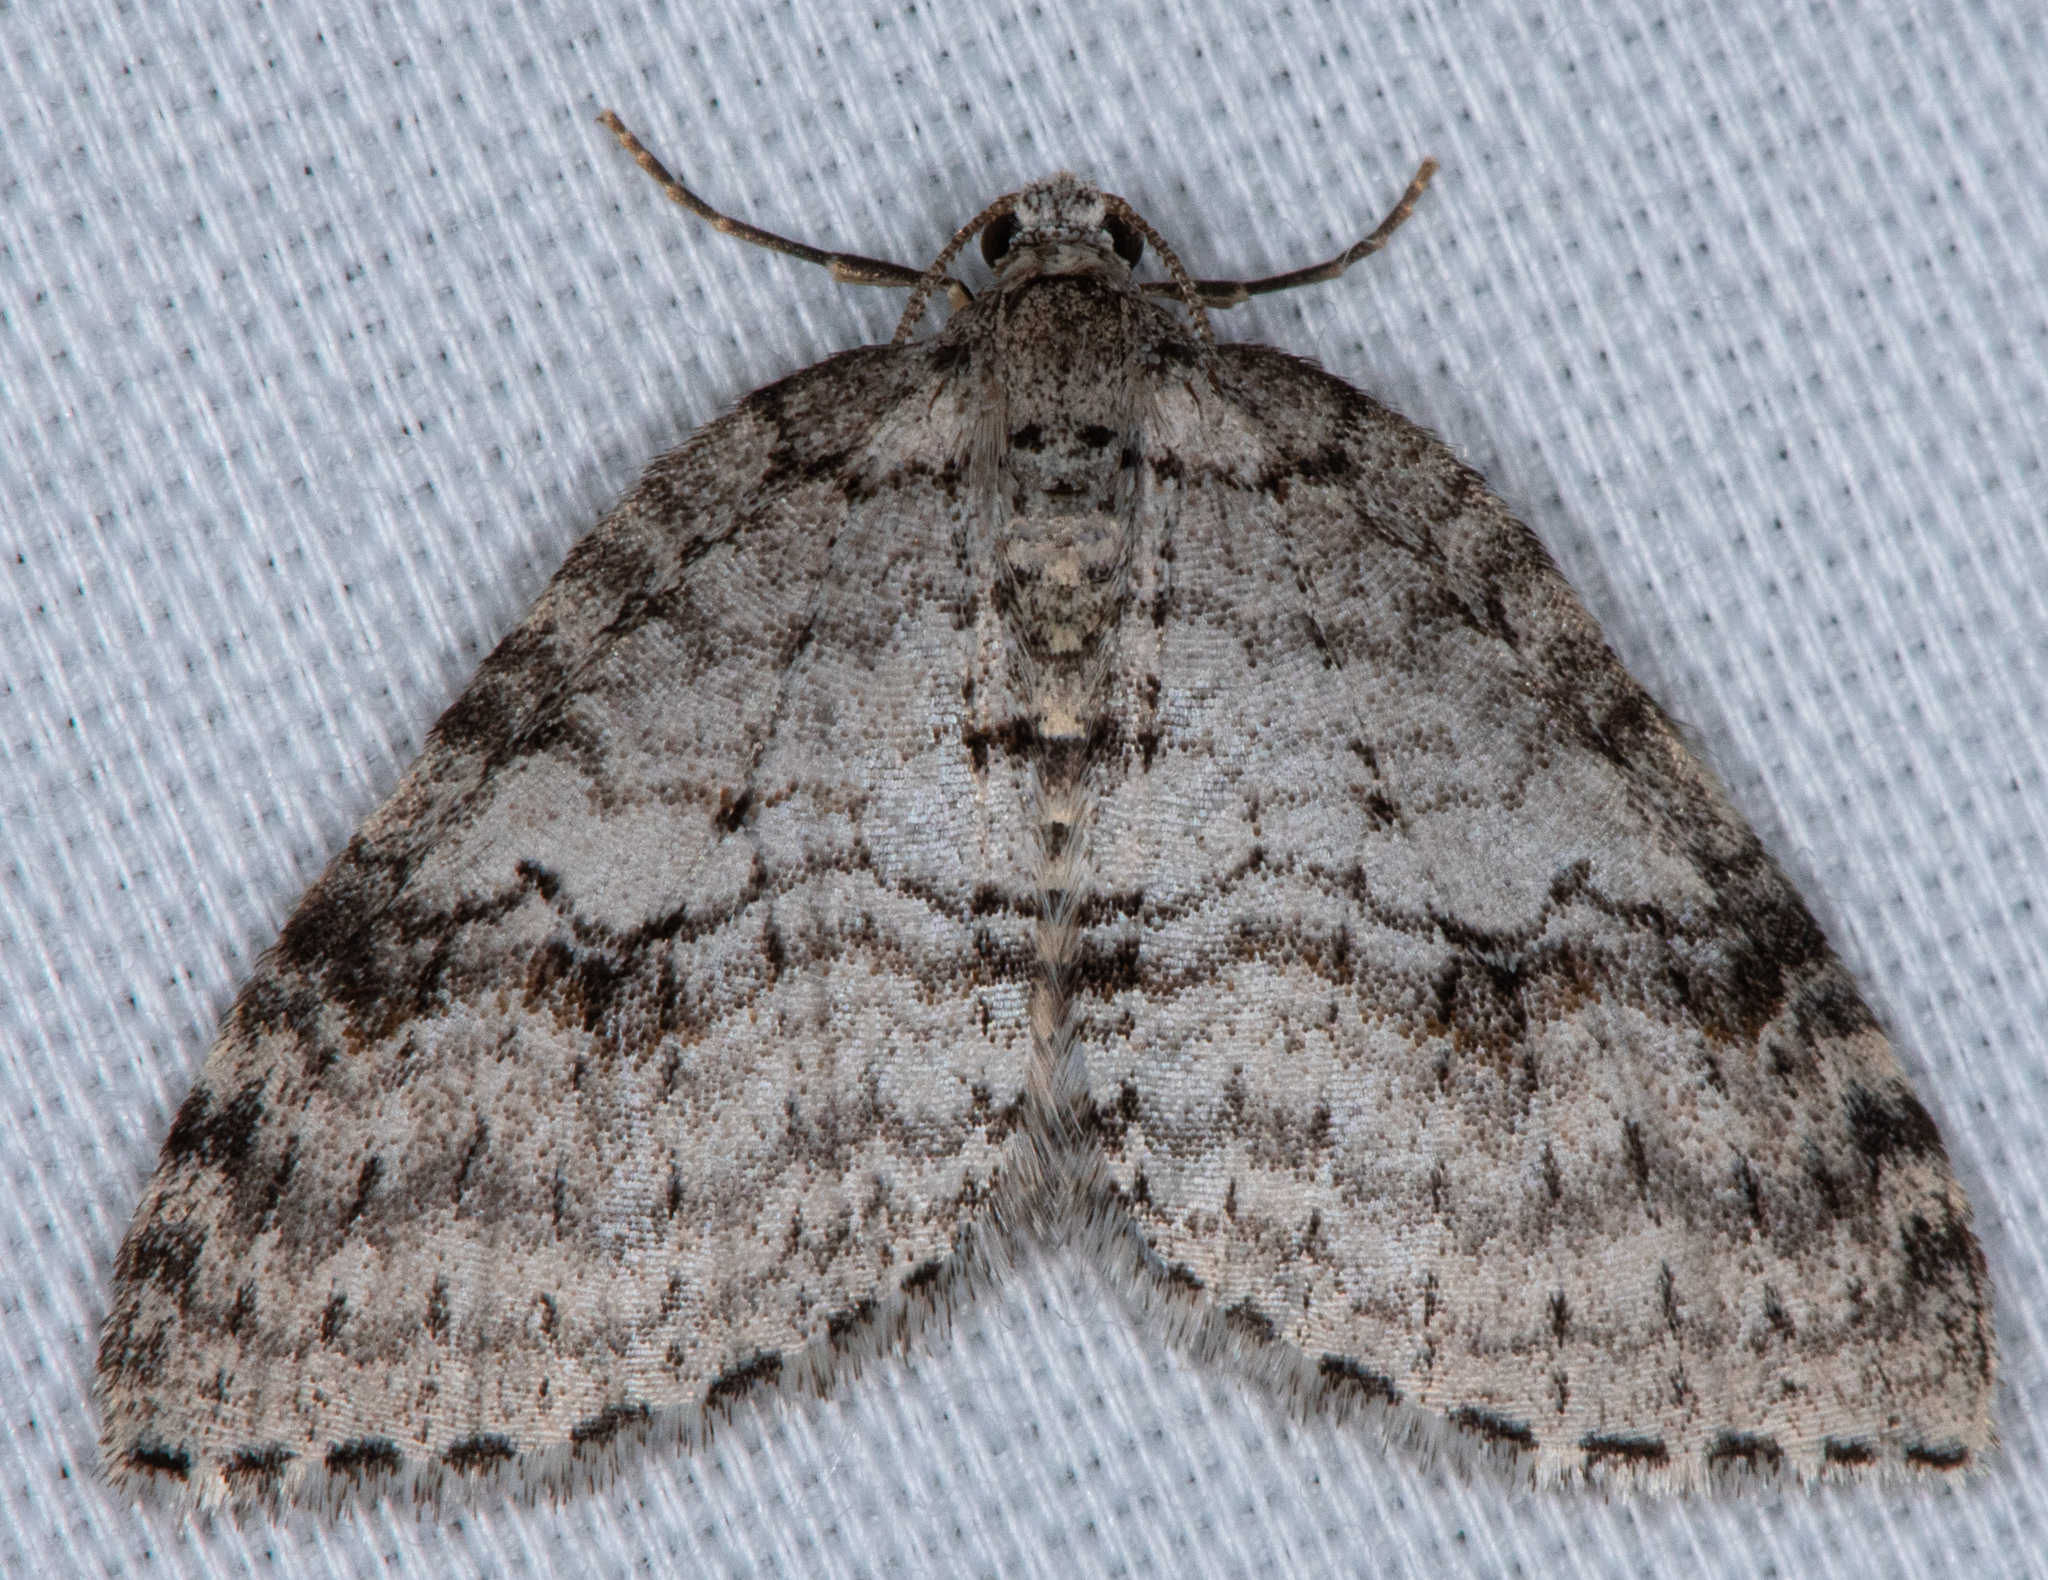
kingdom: Animalia
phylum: Arthropoda
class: Insecta
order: Lepidoptera
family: Geometridae
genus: Venusia
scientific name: Venusia
